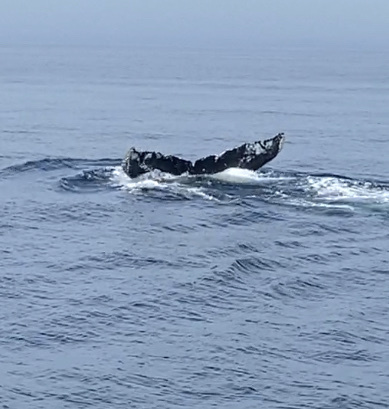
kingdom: Animalia
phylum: Chordata
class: Mammalia
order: Cetacea
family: Balaenopteridae
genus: Megaptera
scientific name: Megaptera novaeangliae
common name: Humpback whale
